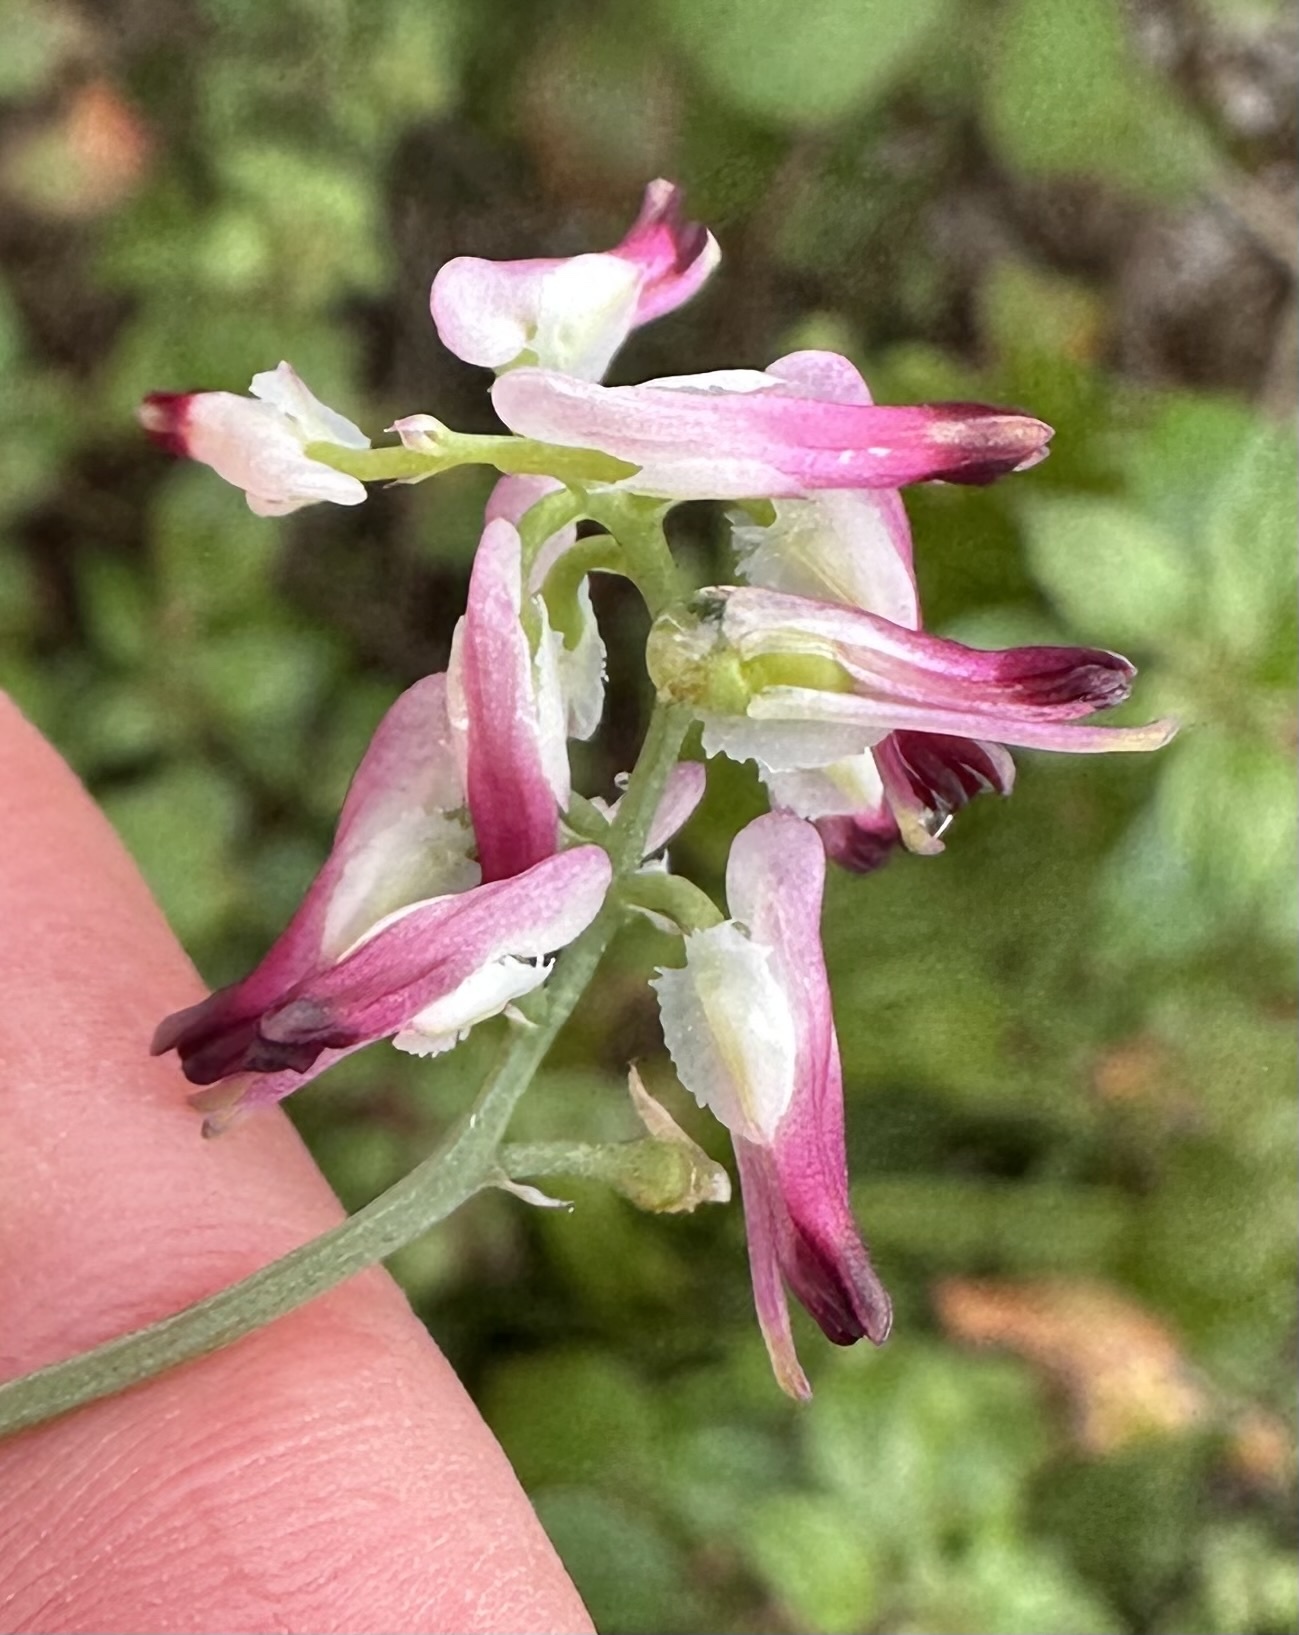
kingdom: Plantae
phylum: Tracheophyta
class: Magnoliopsida
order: Ranunculales
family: Papaveraceae
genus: Fumaria
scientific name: Fumaria capreolata
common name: White ramping-fumitory
